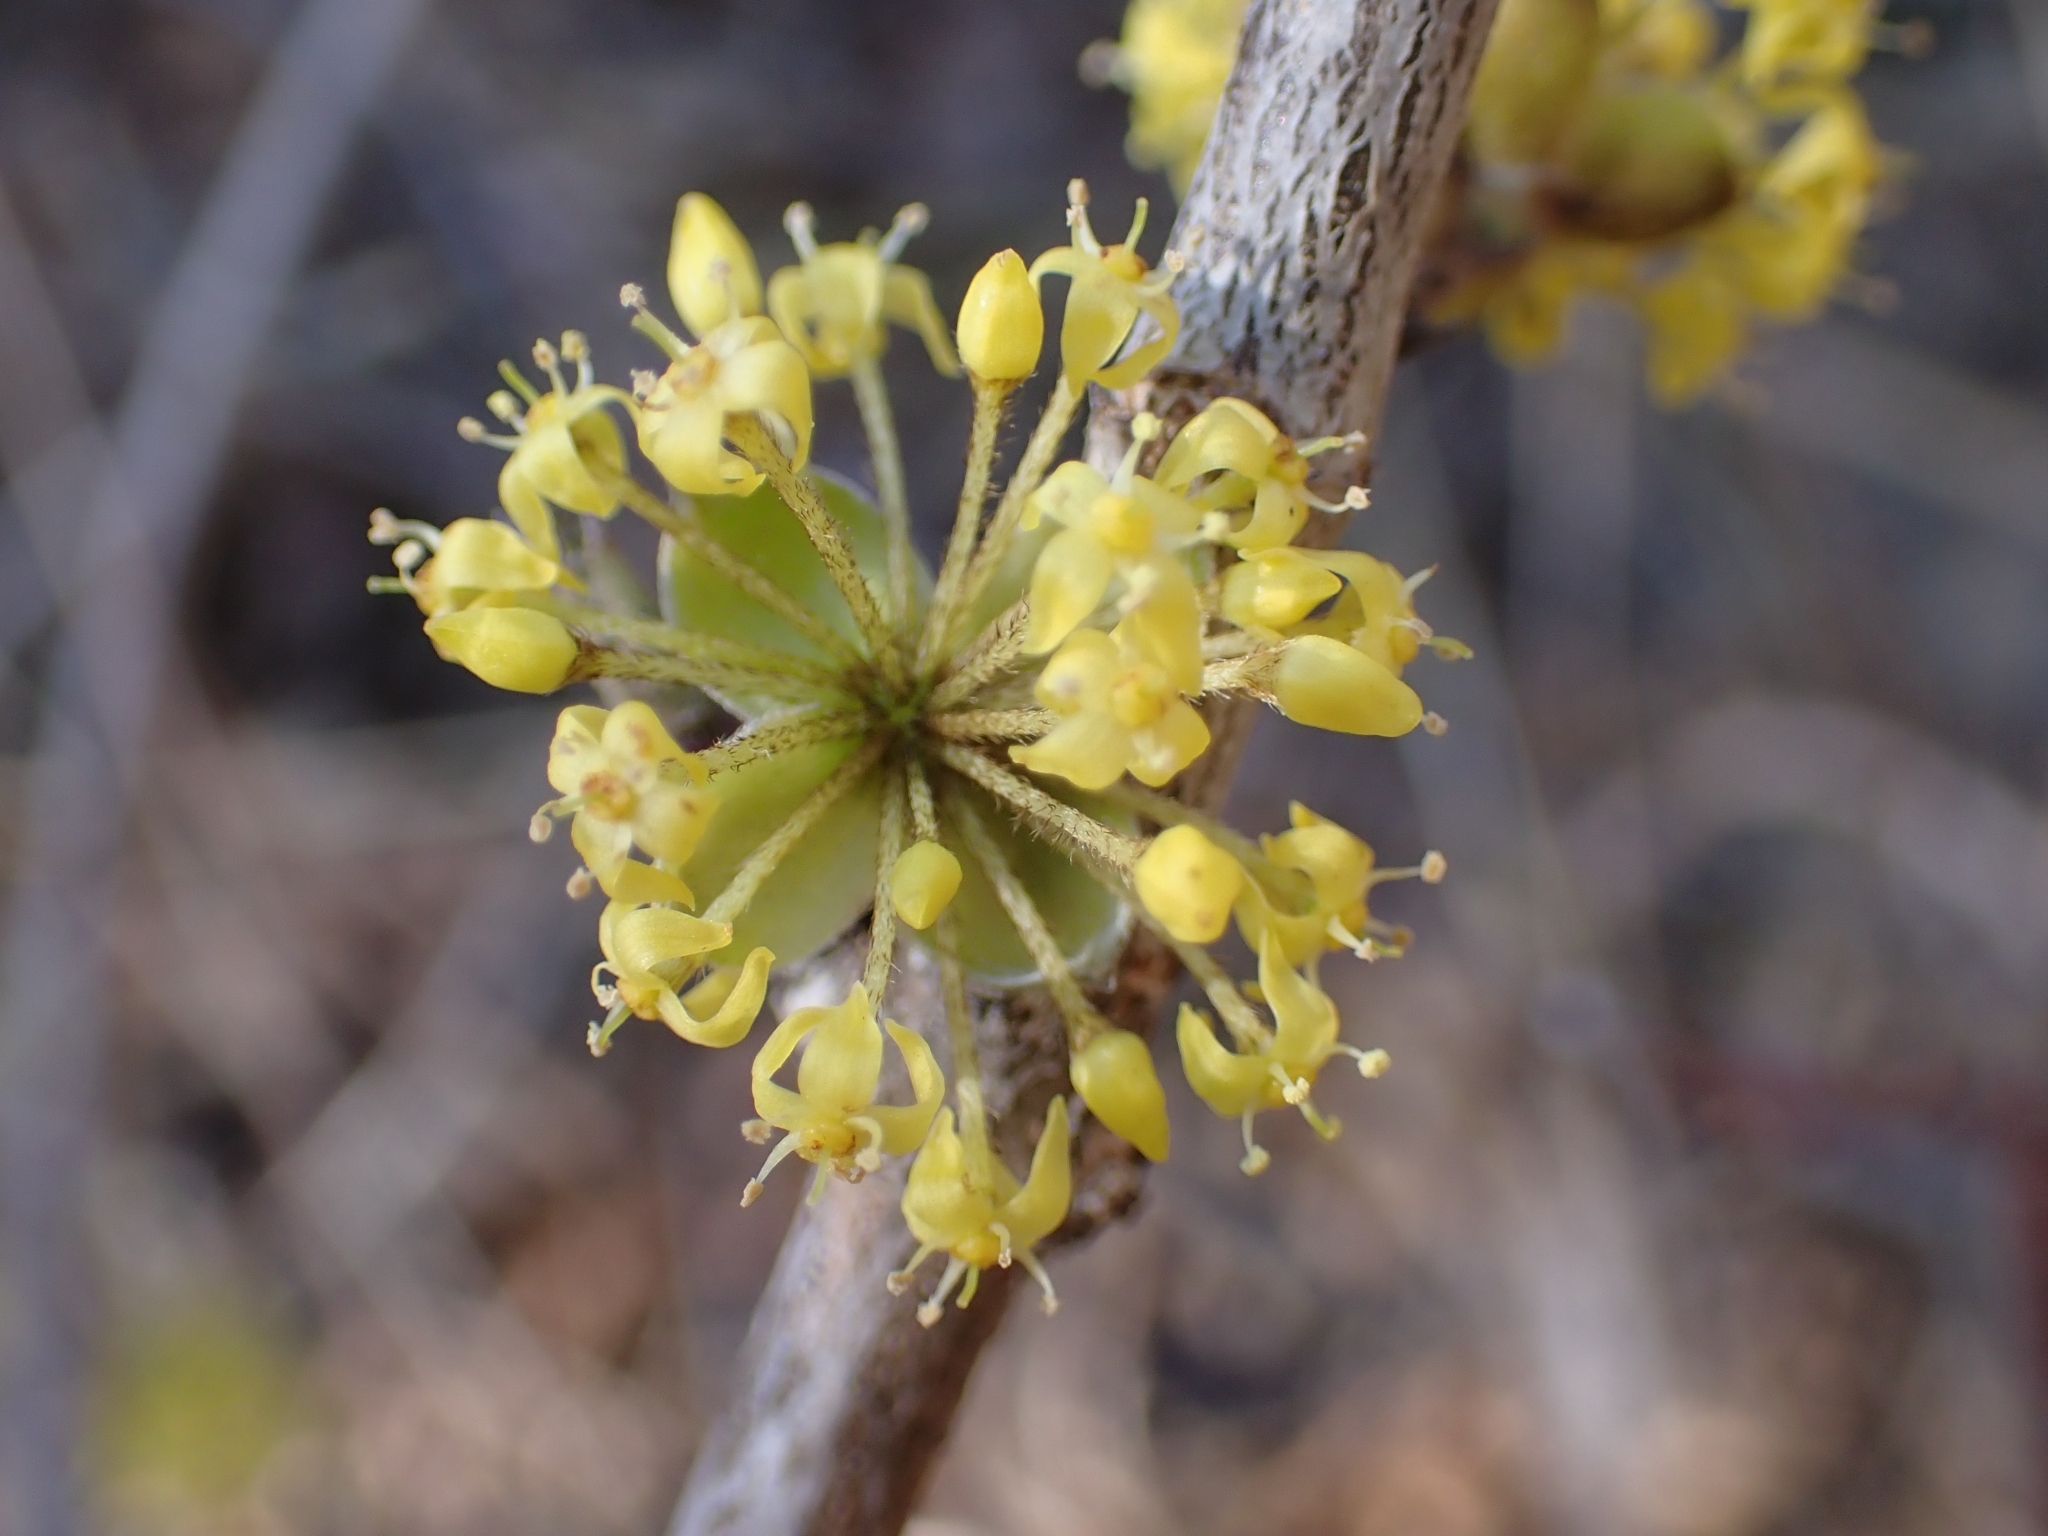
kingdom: Plantae
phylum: Tracheophyta
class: Magnoliopsida
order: Cornales
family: Cornaceae
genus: Cornus
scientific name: Cornus mas
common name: Cornelian-cherry
